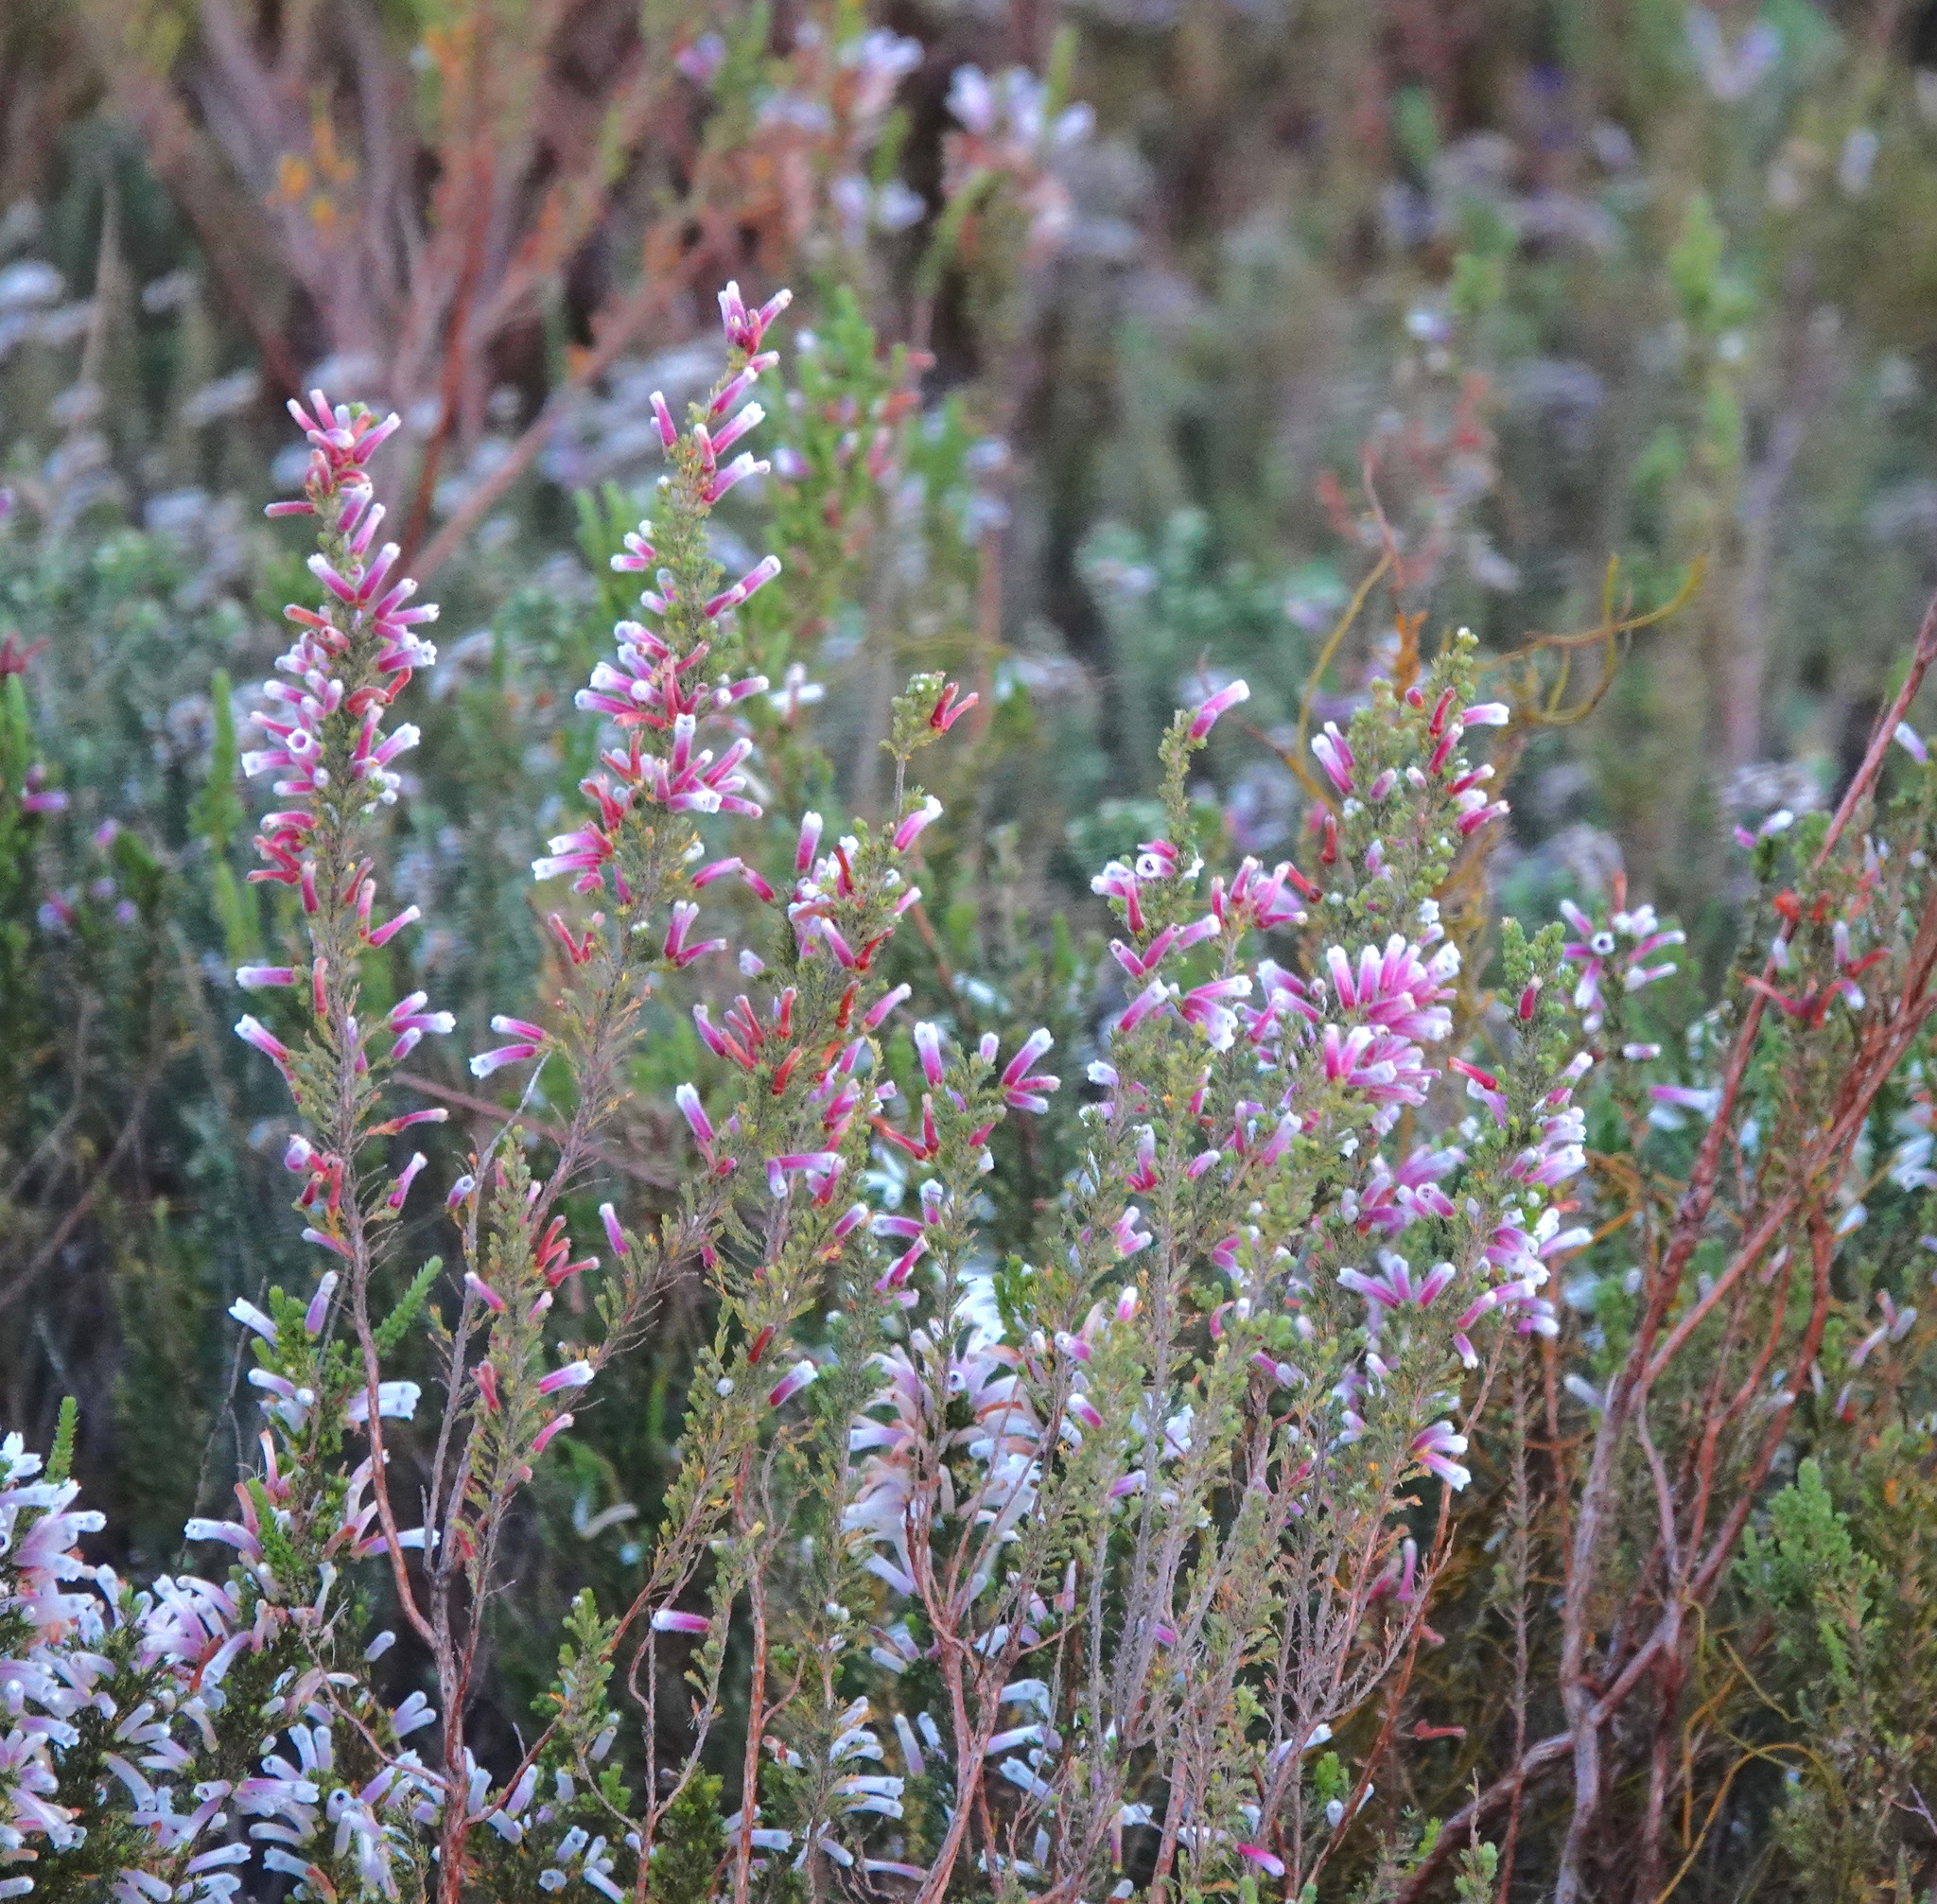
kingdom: Plantae
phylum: Tracheophyta
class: Magnoliopsida
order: Ericales
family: Ericaceae
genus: Erica
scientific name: Erica perspicua
